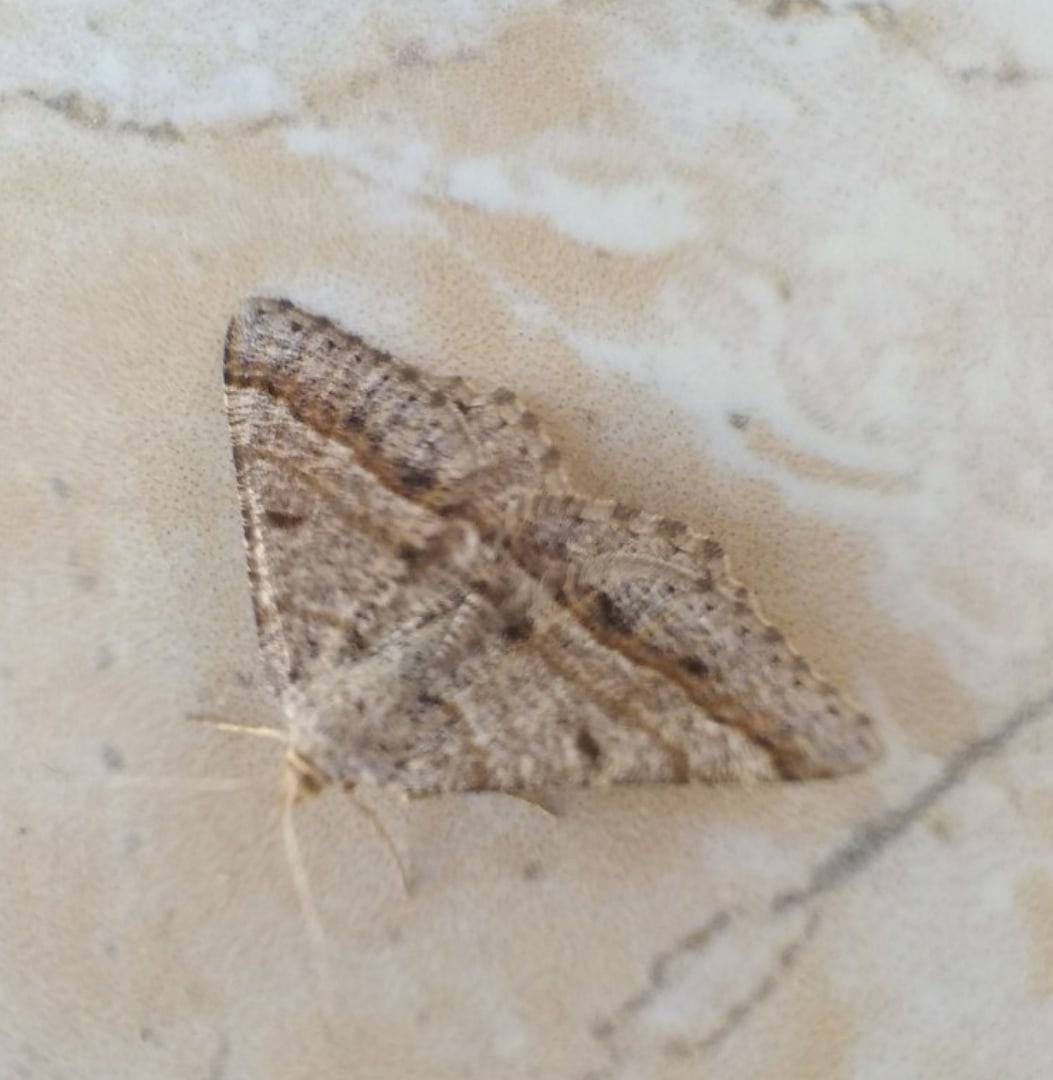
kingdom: Animalia
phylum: Arthropoda
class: Insecta
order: Lepidoptera
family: Geometridae
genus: Tephrina
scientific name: Tephrina murinaria
